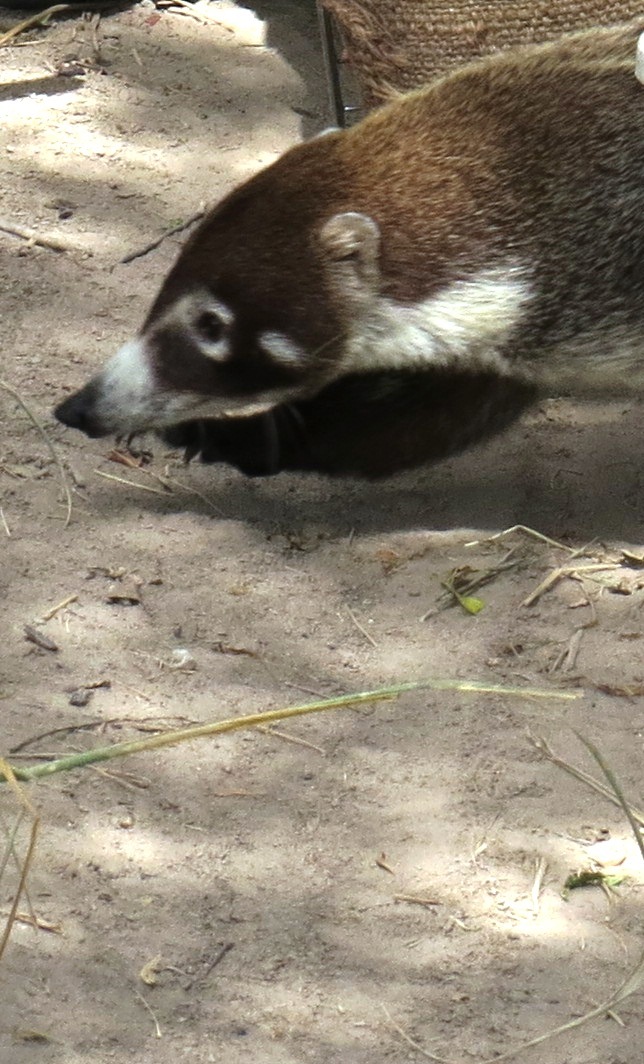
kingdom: Animalia
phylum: Chordata
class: Mammalia
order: Carnivora
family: Procyonidae
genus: Nasua
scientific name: Nasua narica
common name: White-nosed coati
